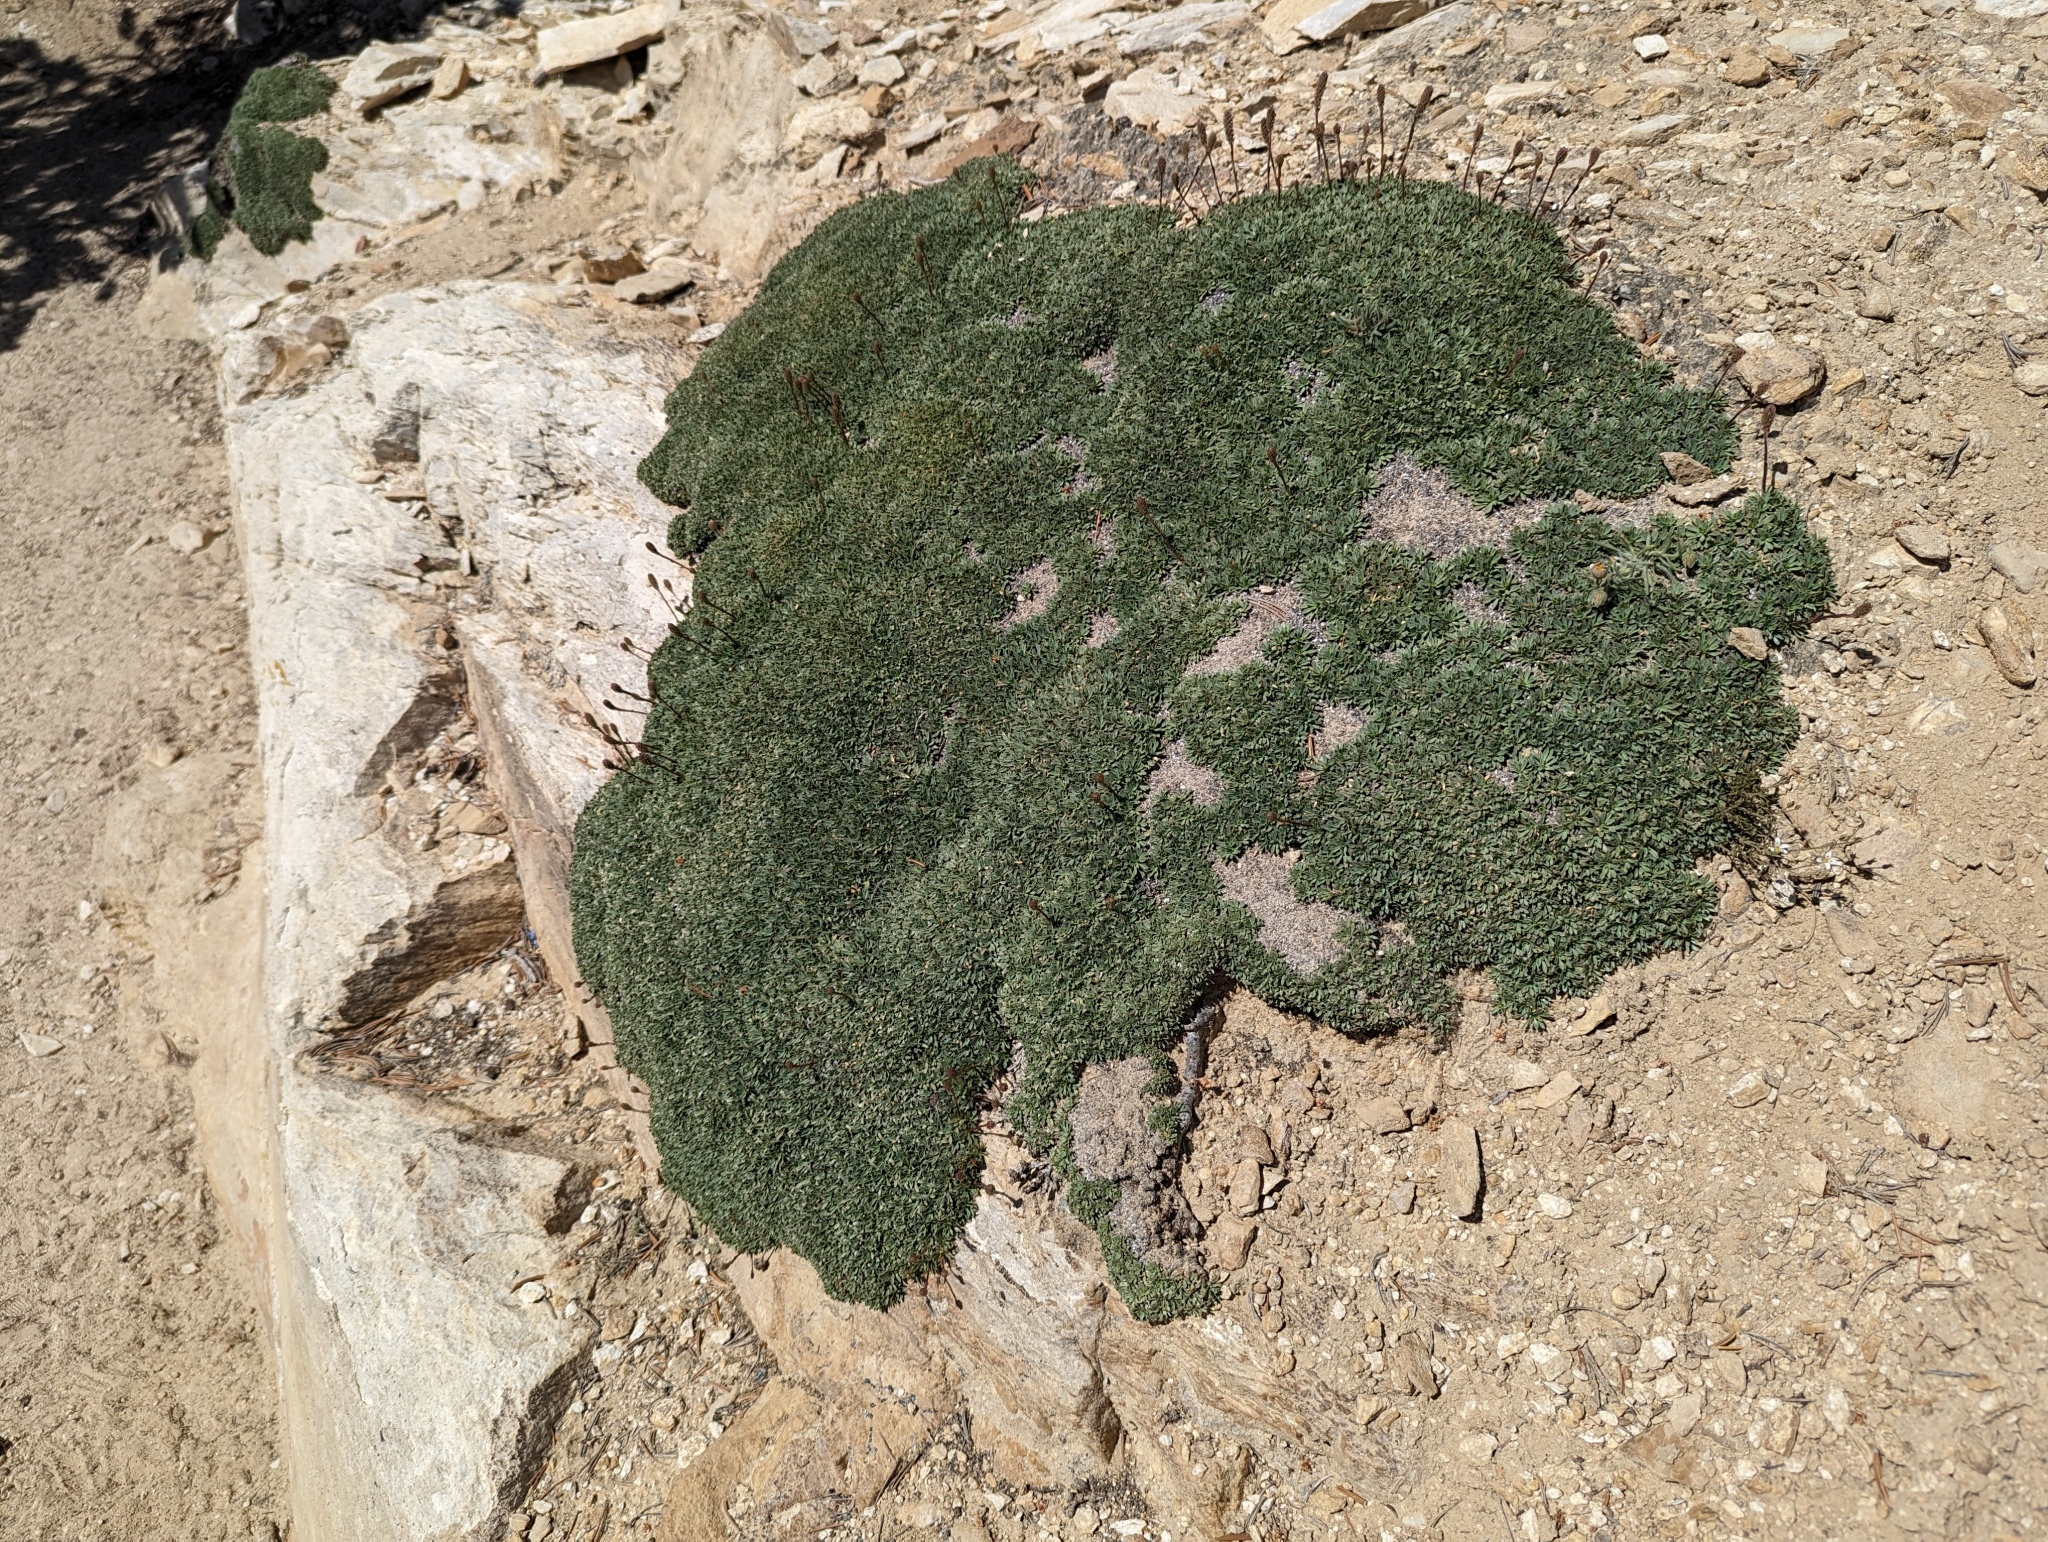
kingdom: Plantae
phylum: Tracheophyta
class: Magnoliopsida
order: Rosales
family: Rosaceae
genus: Petrophytum
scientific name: Petrophytum caespitosum
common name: Mat rockspirea
